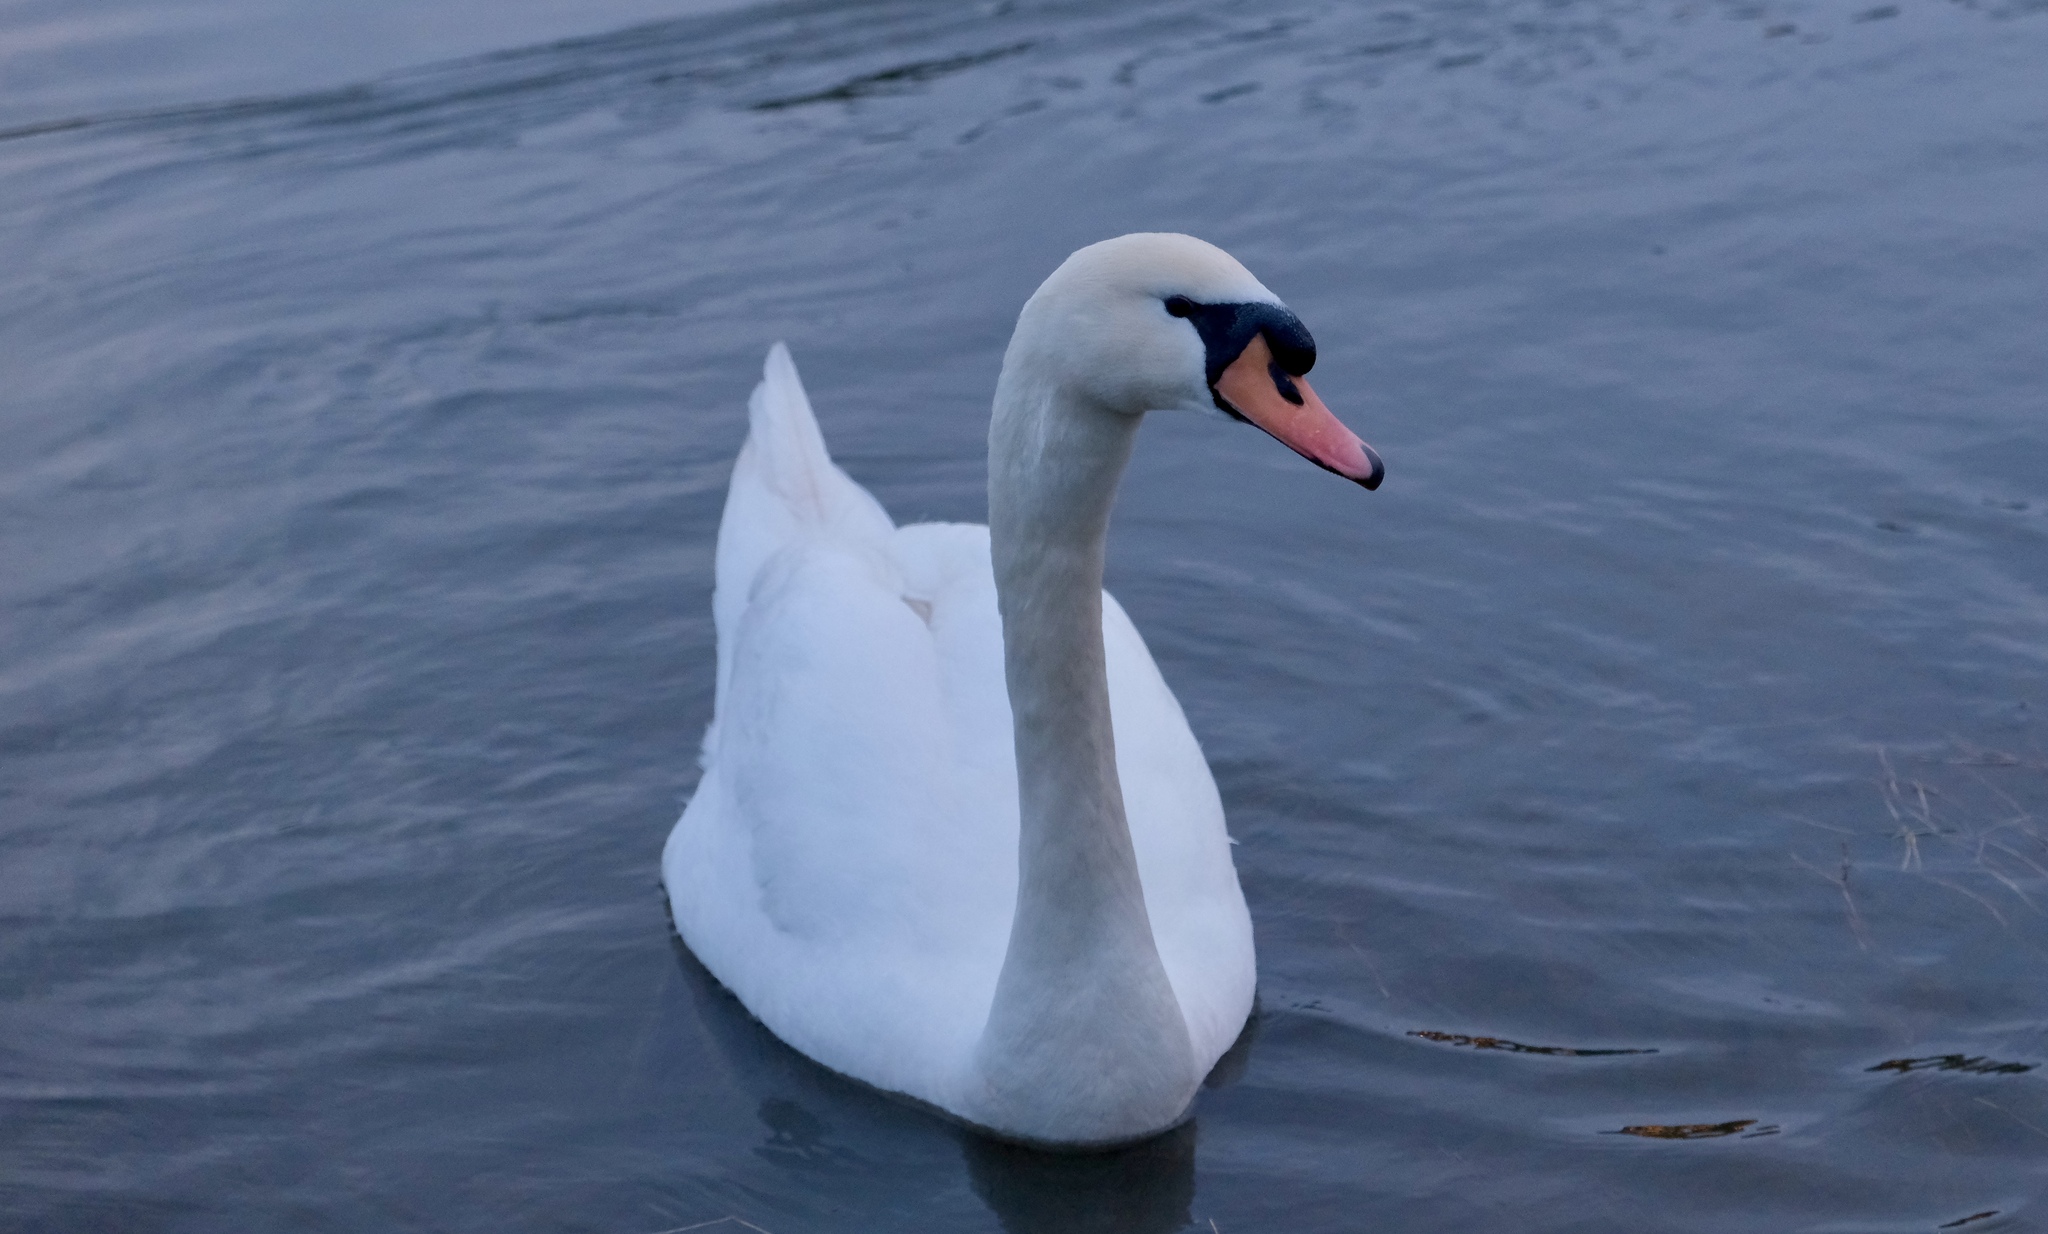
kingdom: Animalia
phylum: Chordata
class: Aves
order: Anseriformes
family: Anatidae
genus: Cygnus
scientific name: Cygnus olor
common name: Mute swan
